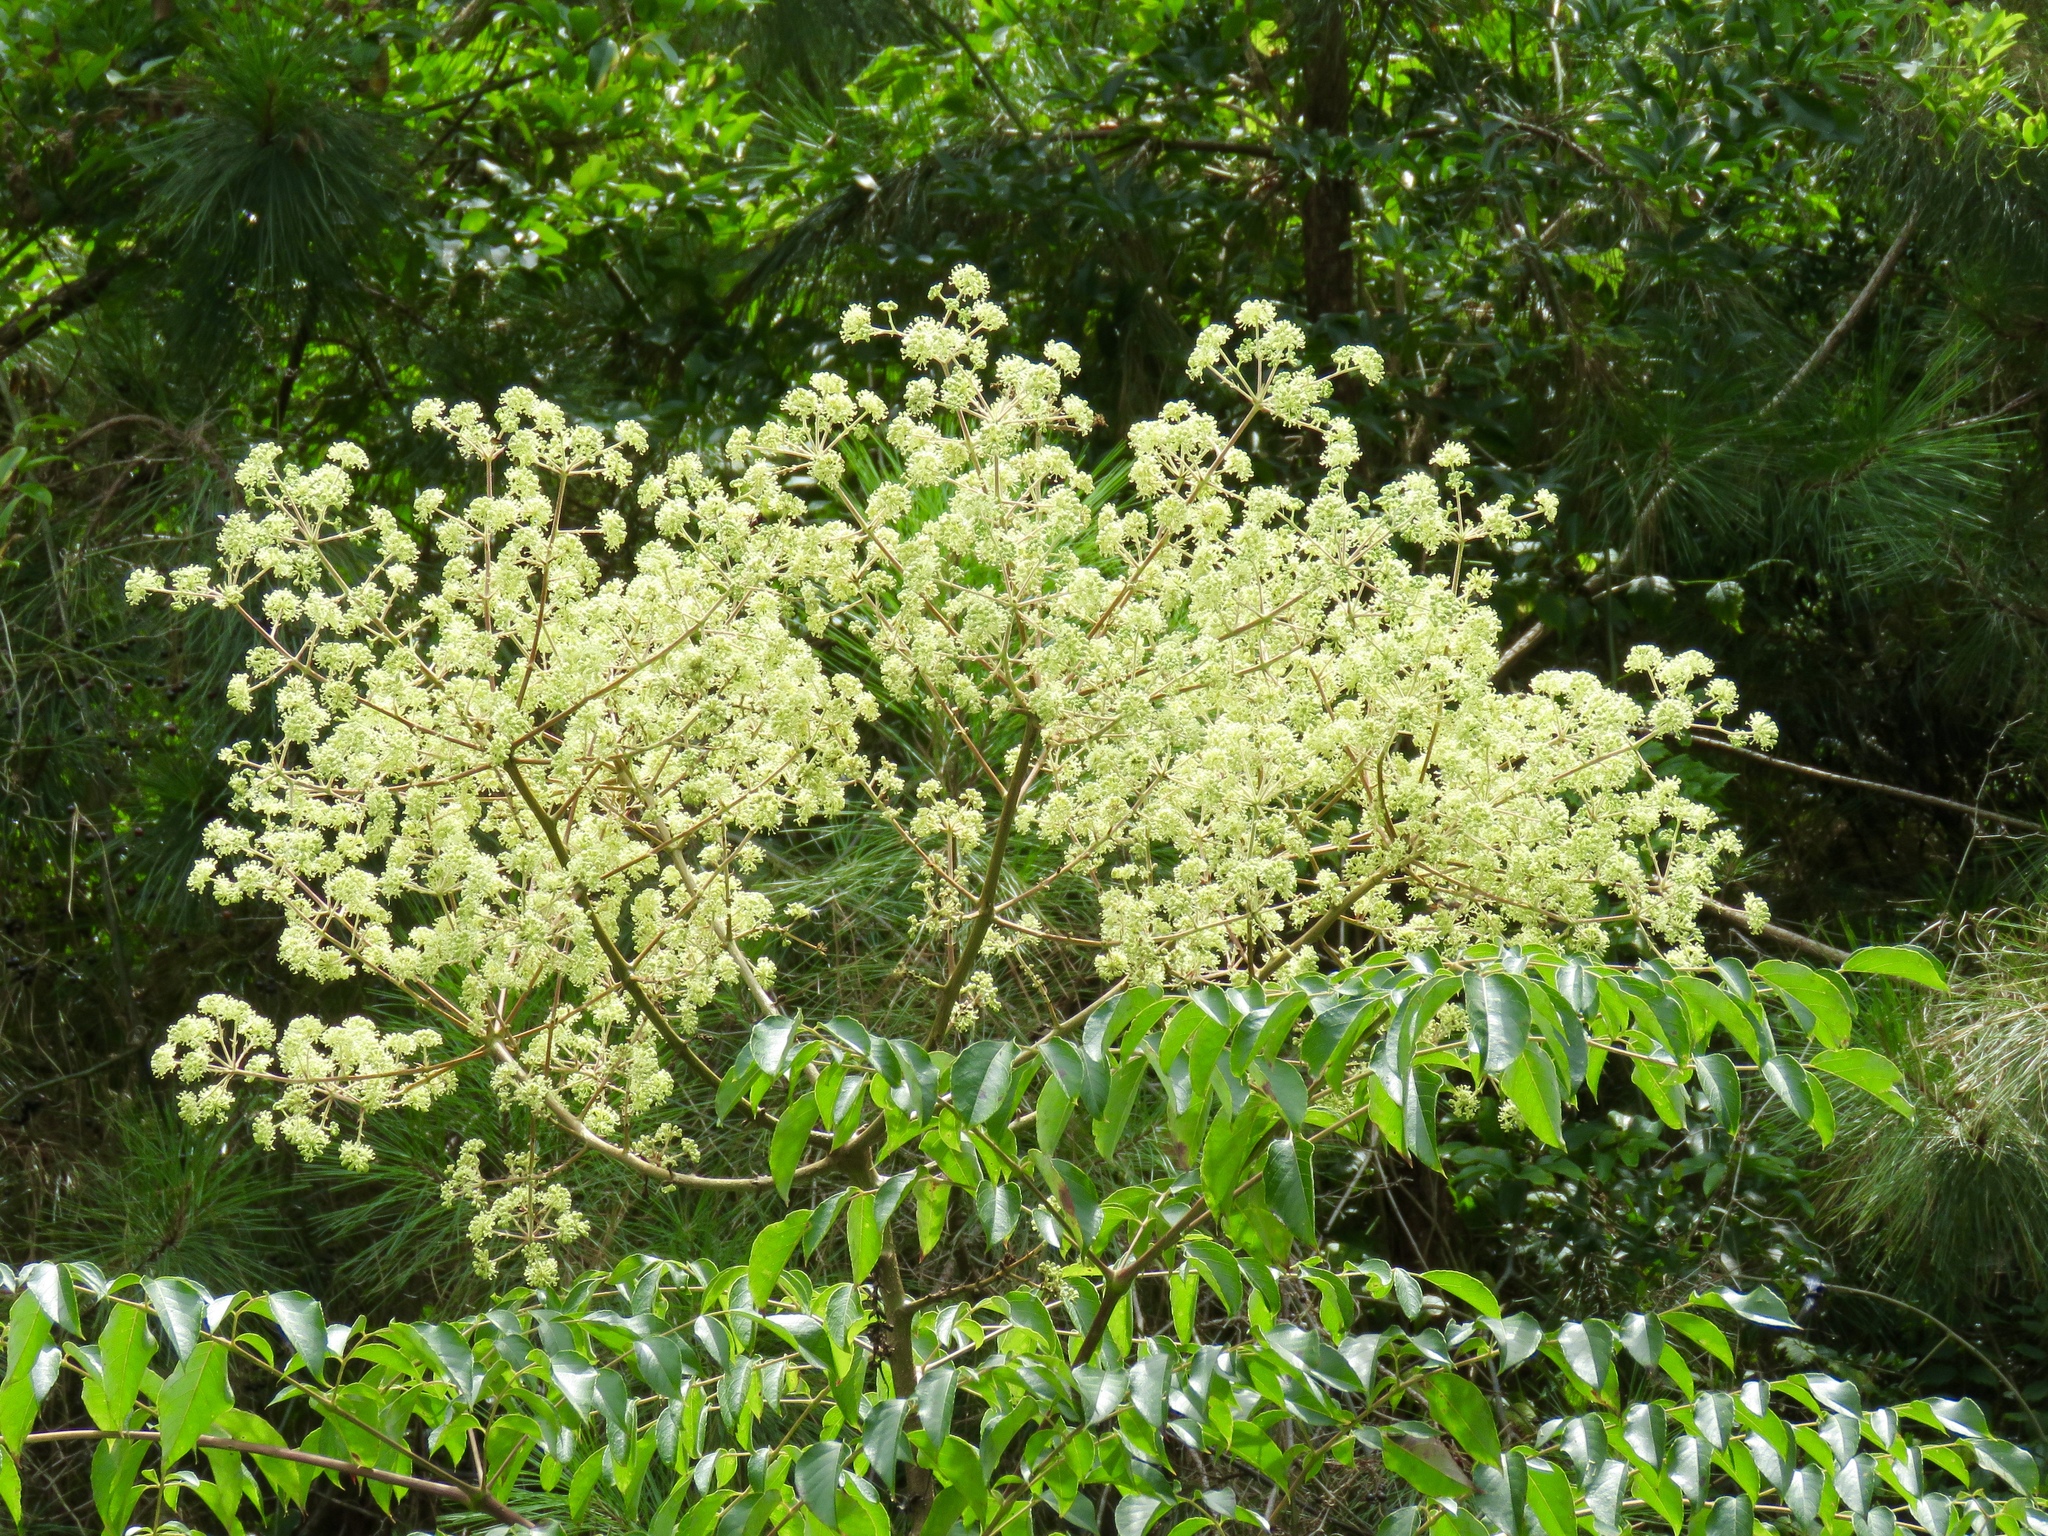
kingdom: Plantae
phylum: Tracheophyta
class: Magnoliopsida
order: Apiales
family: Araliaceae
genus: Aralia
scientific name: Aralia spinosa
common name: Hercules'-club
